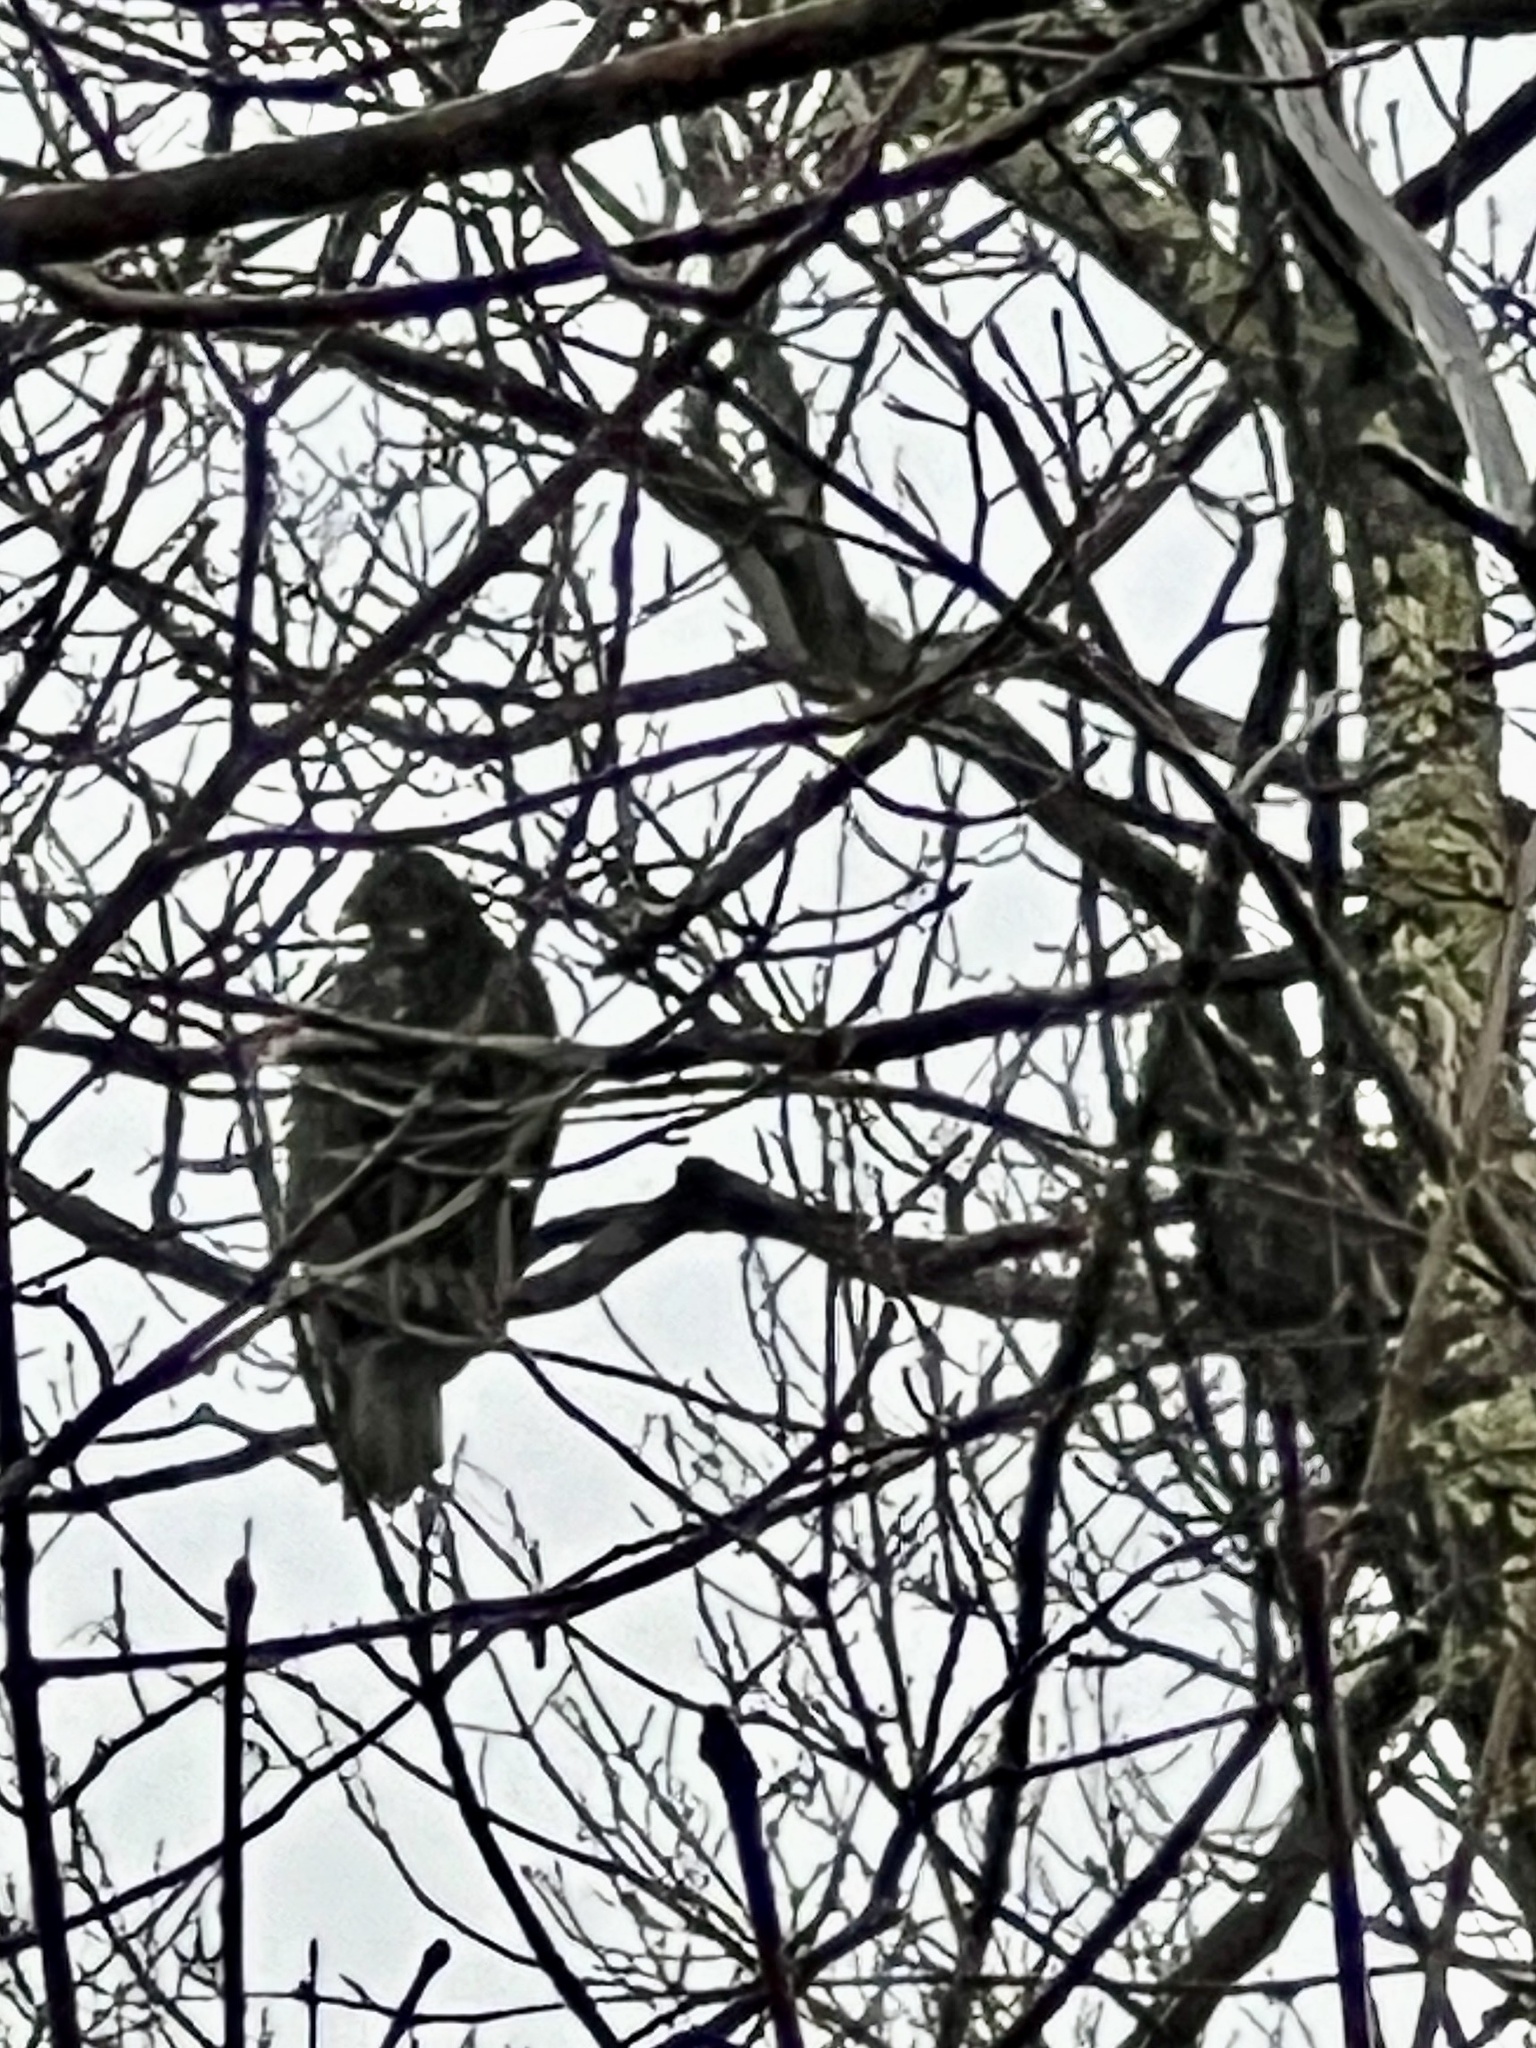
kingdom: Animalia
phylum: Chordata
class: Aves
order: Accipitriformes
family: Cathartidae
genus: Cathartes
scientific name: Cathartes aura
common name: Turkey vulture
